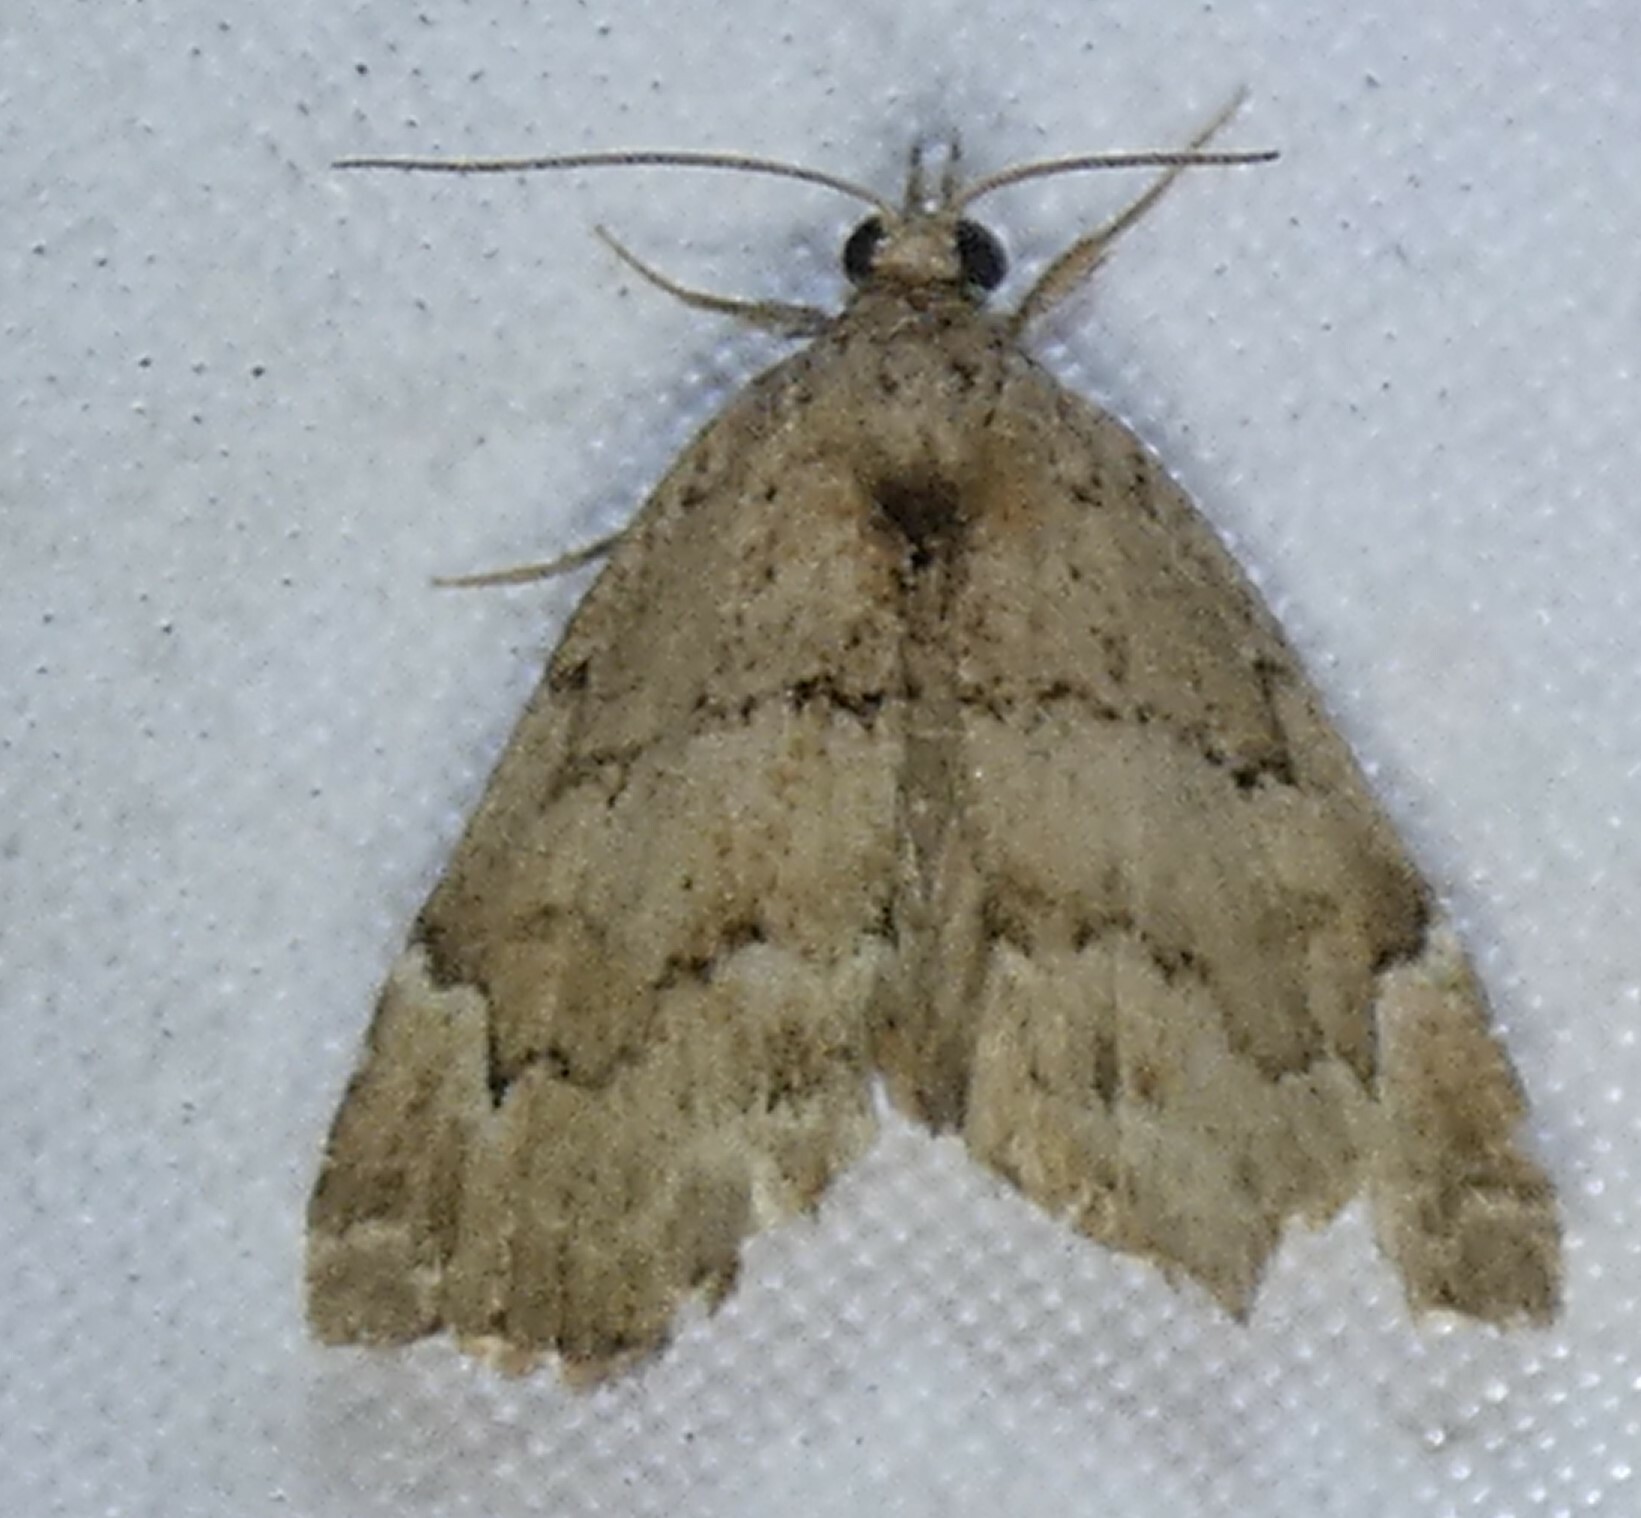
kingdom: Animalia
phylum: Arthropoda
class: Insecta
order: Lepidoptera
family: Erebidae
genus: Cutina
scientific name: Cutina aluticolor
